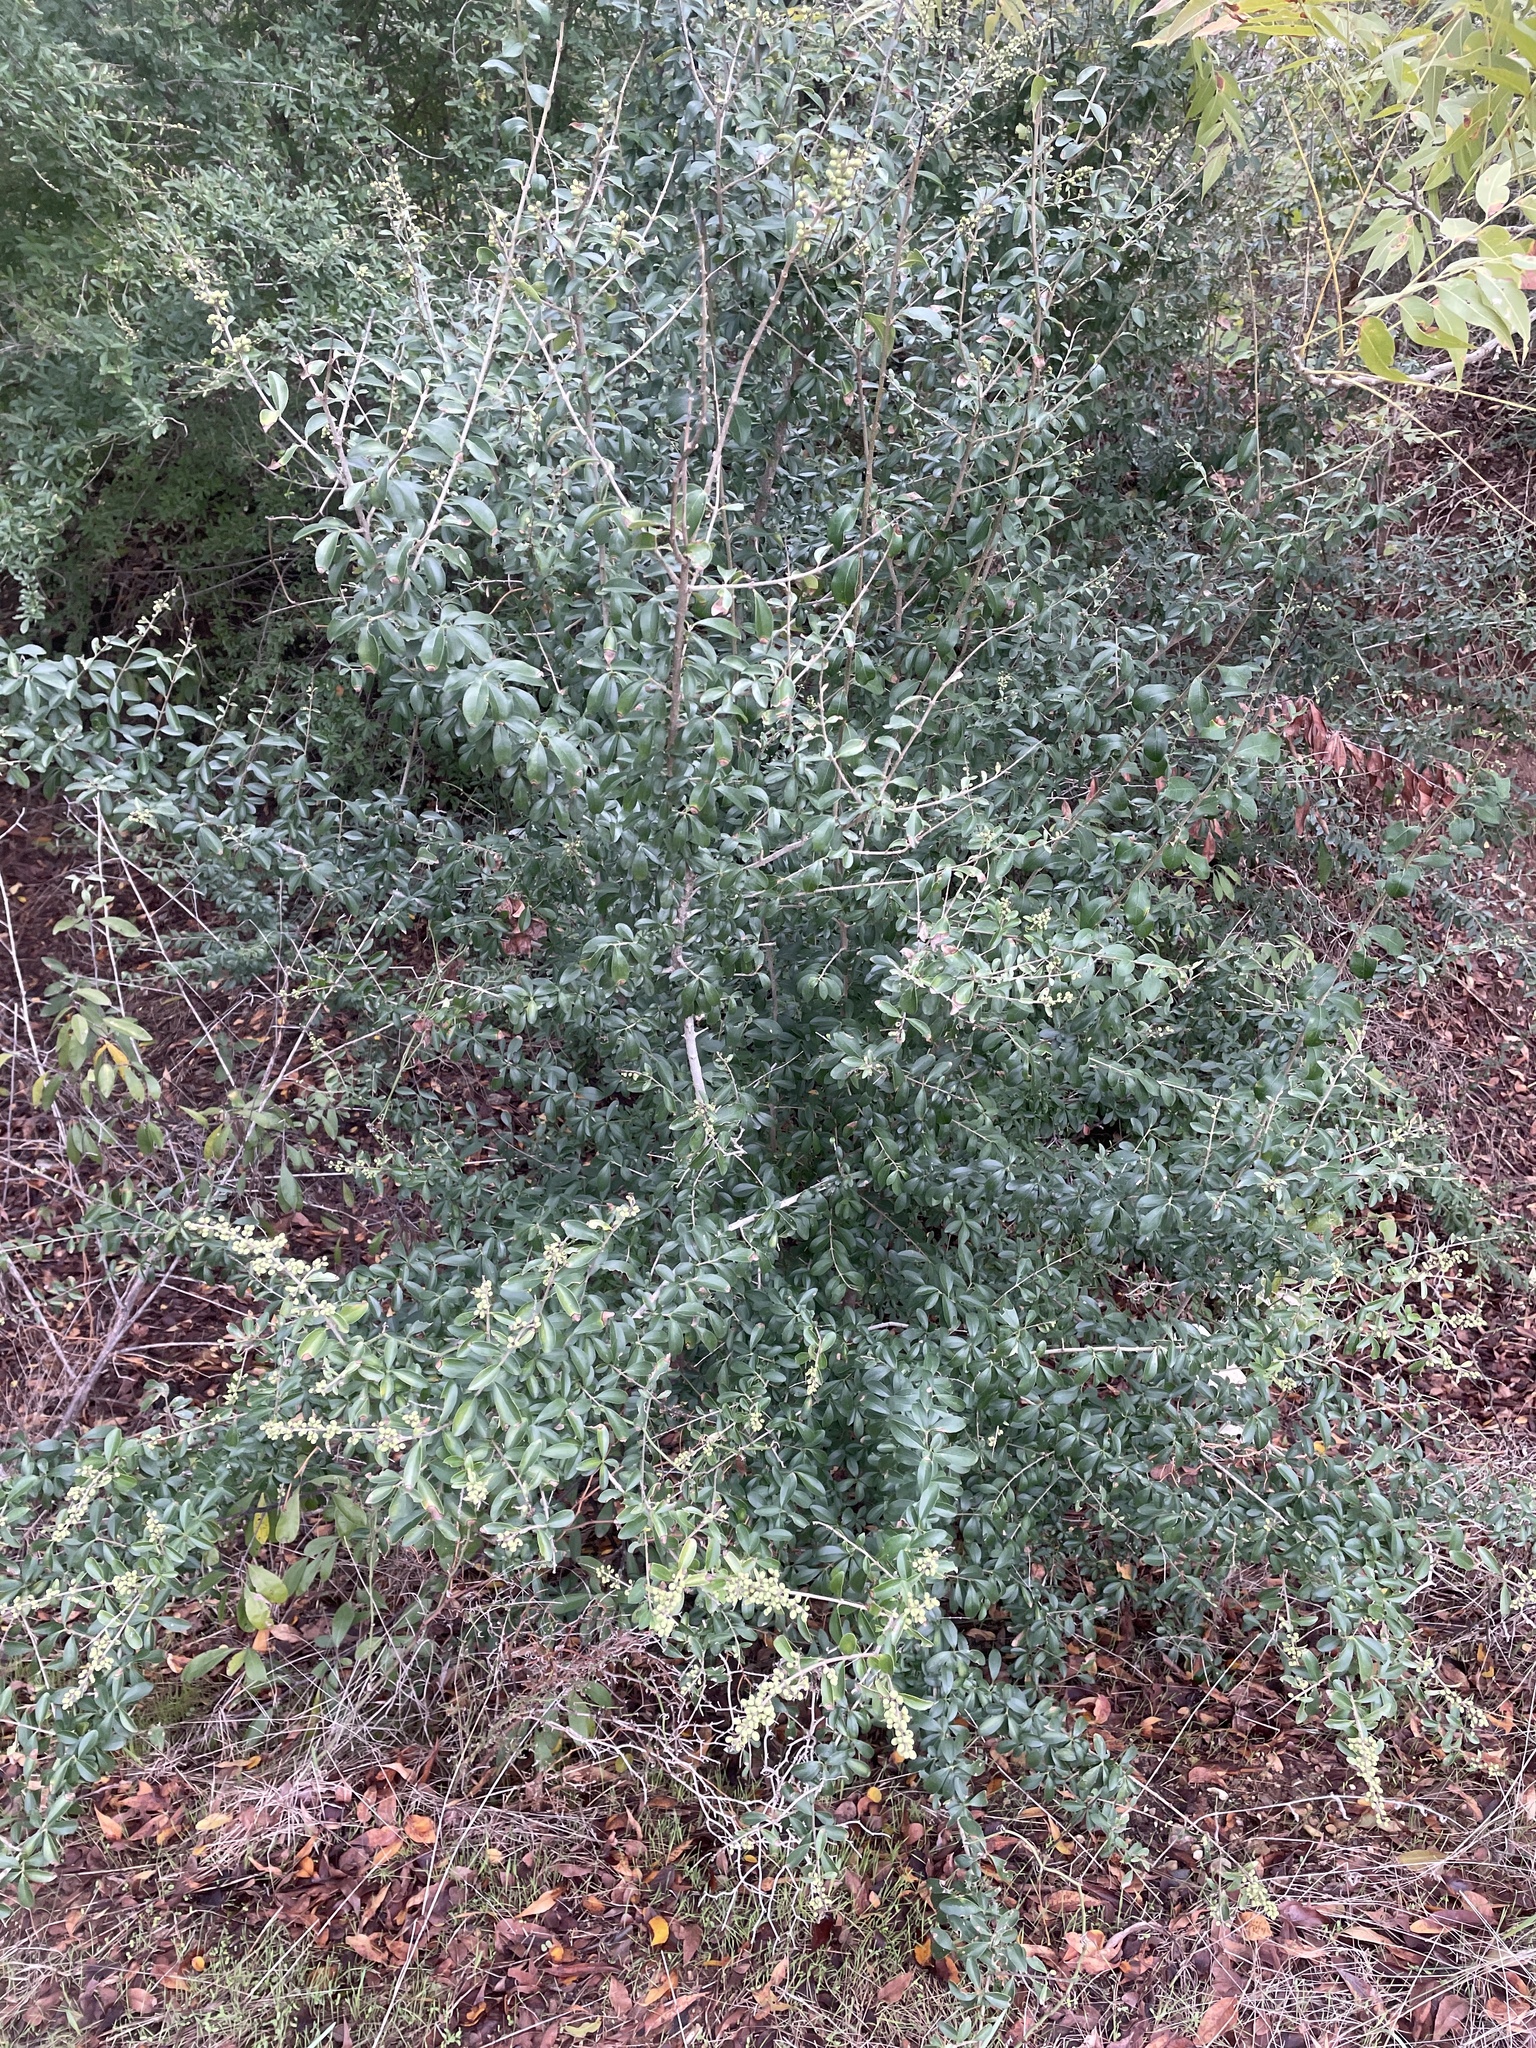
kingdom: Plantae
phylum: Tracheophyta
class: Magnoliopsida
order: Lamiales
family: Oleaceae
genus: Ligustrum
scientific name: Ligustrum quihoui
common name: Waxyleaf privet
